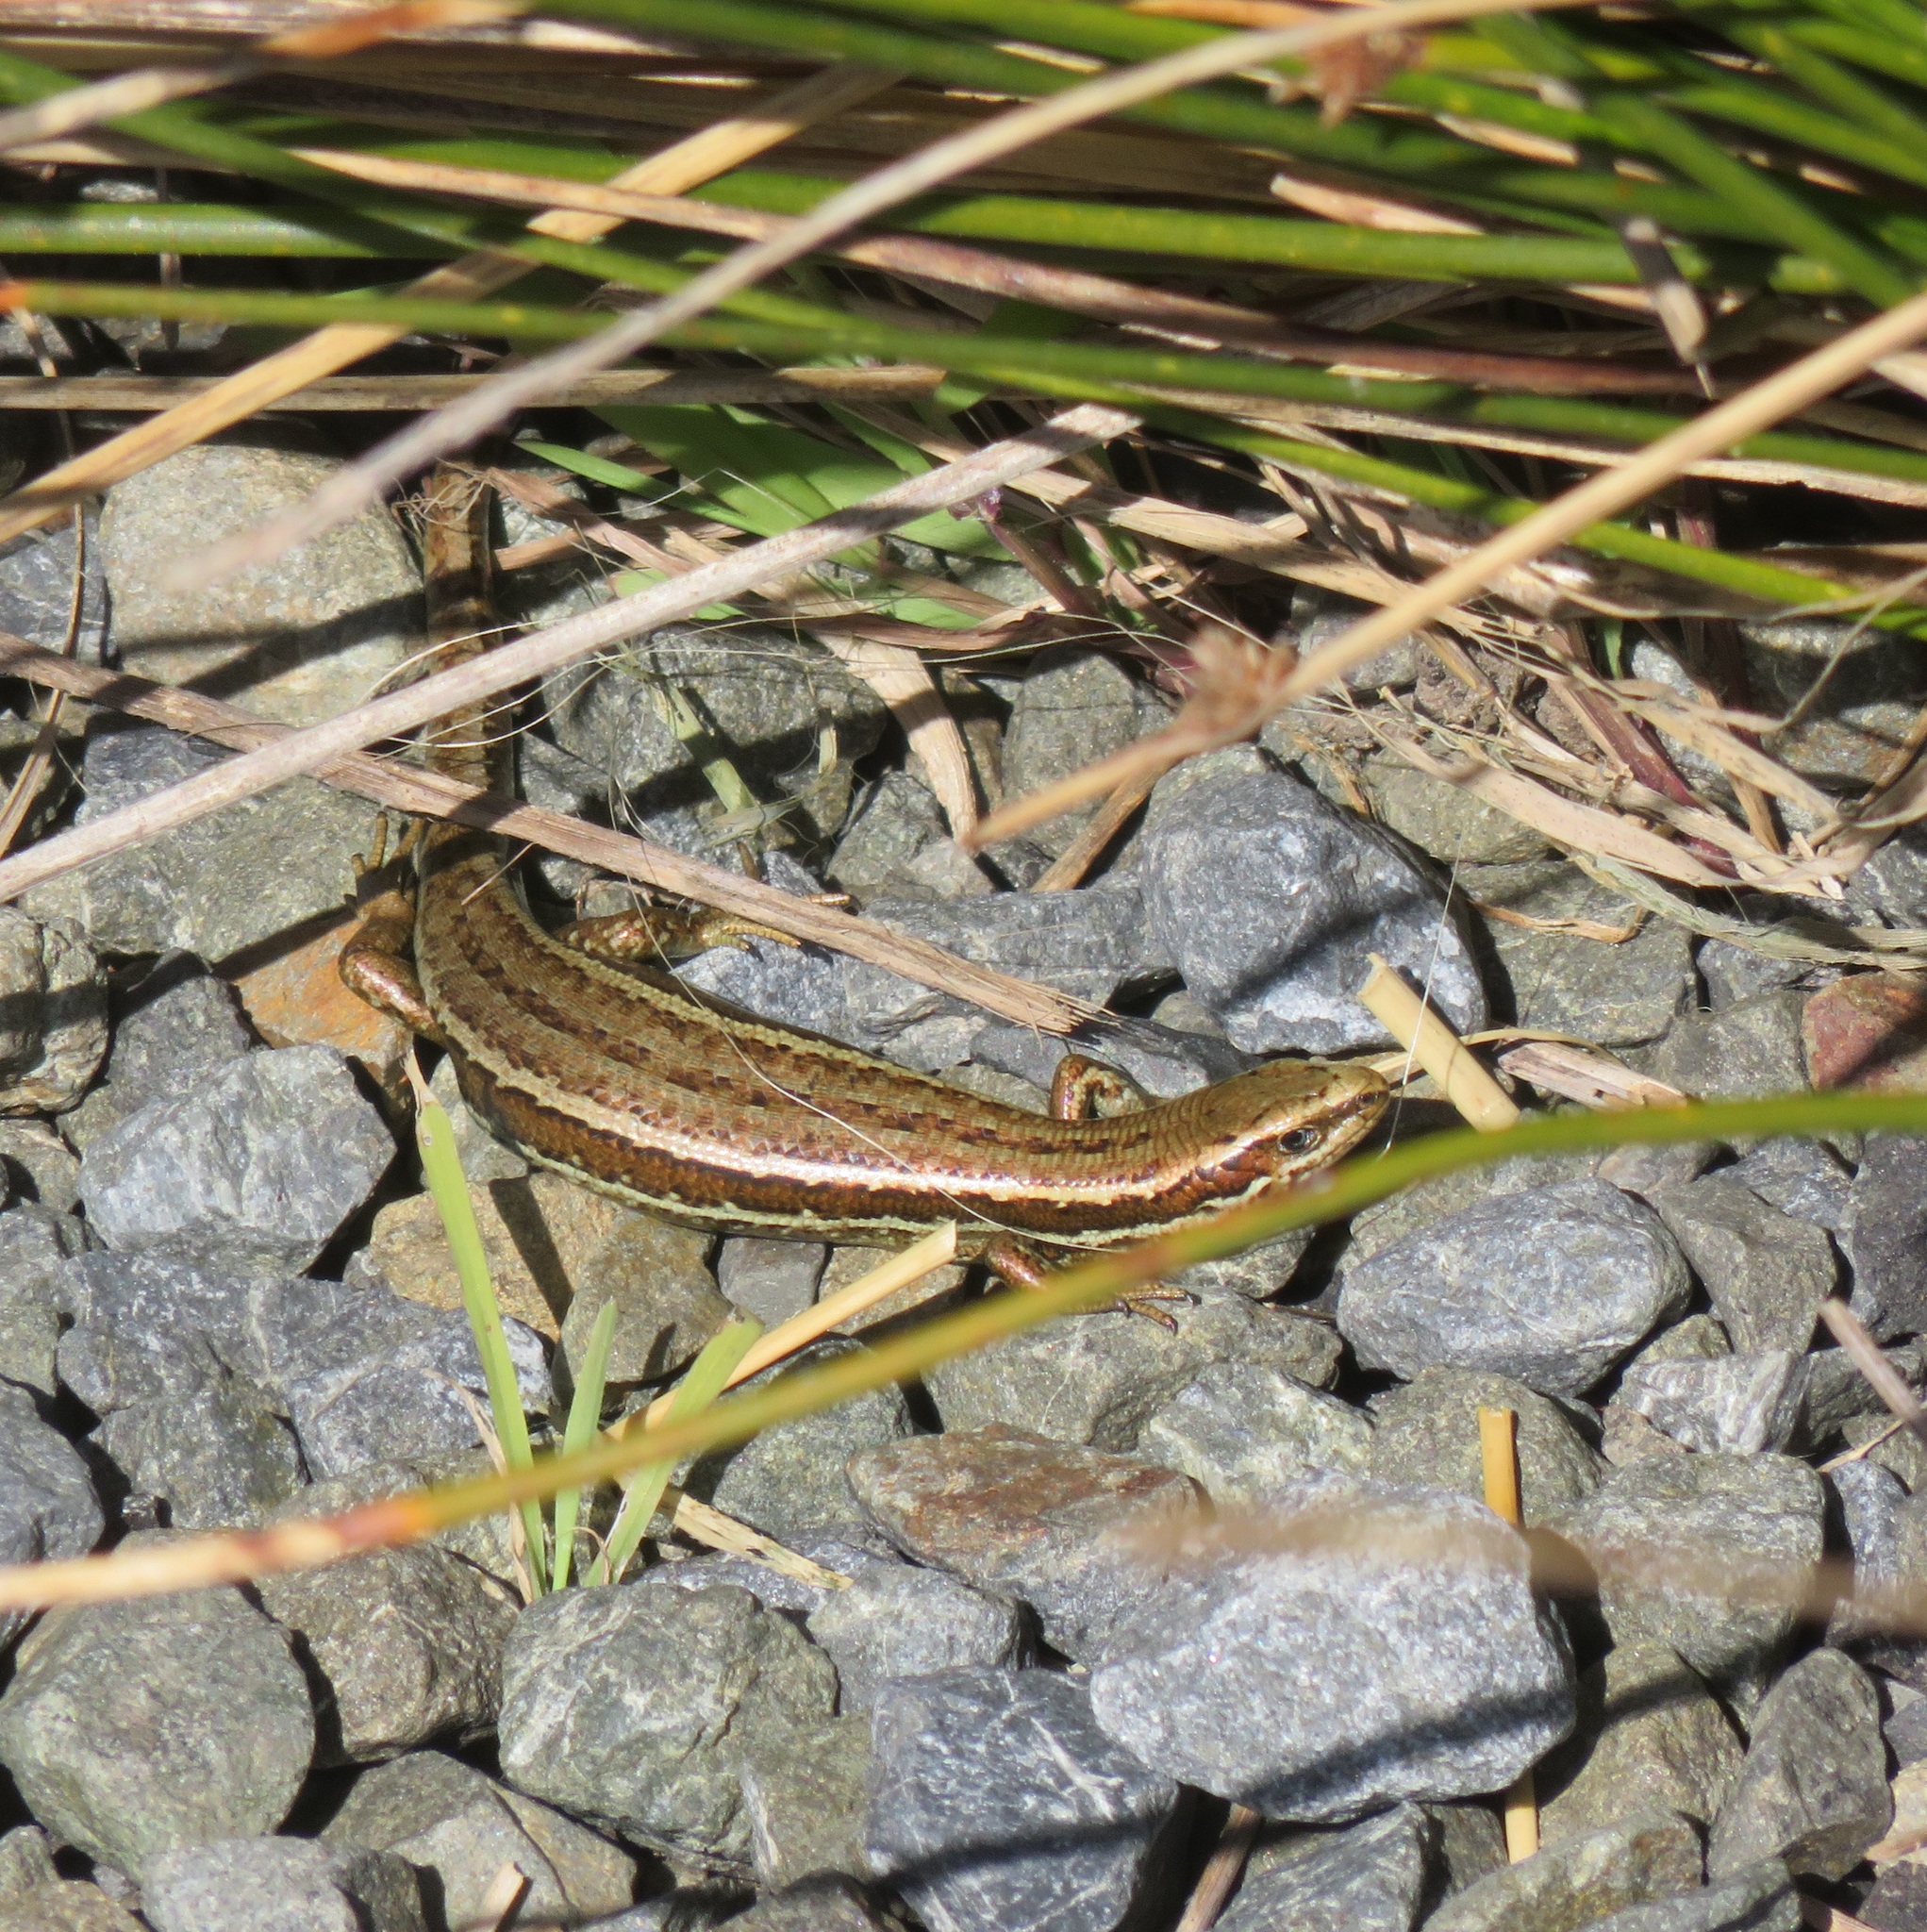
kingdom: Animalia
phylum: Chordata
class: Squamata
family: Scincidae
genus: Oligosoma
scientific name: Oligosoma polychroma
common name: Common new zealand skink
